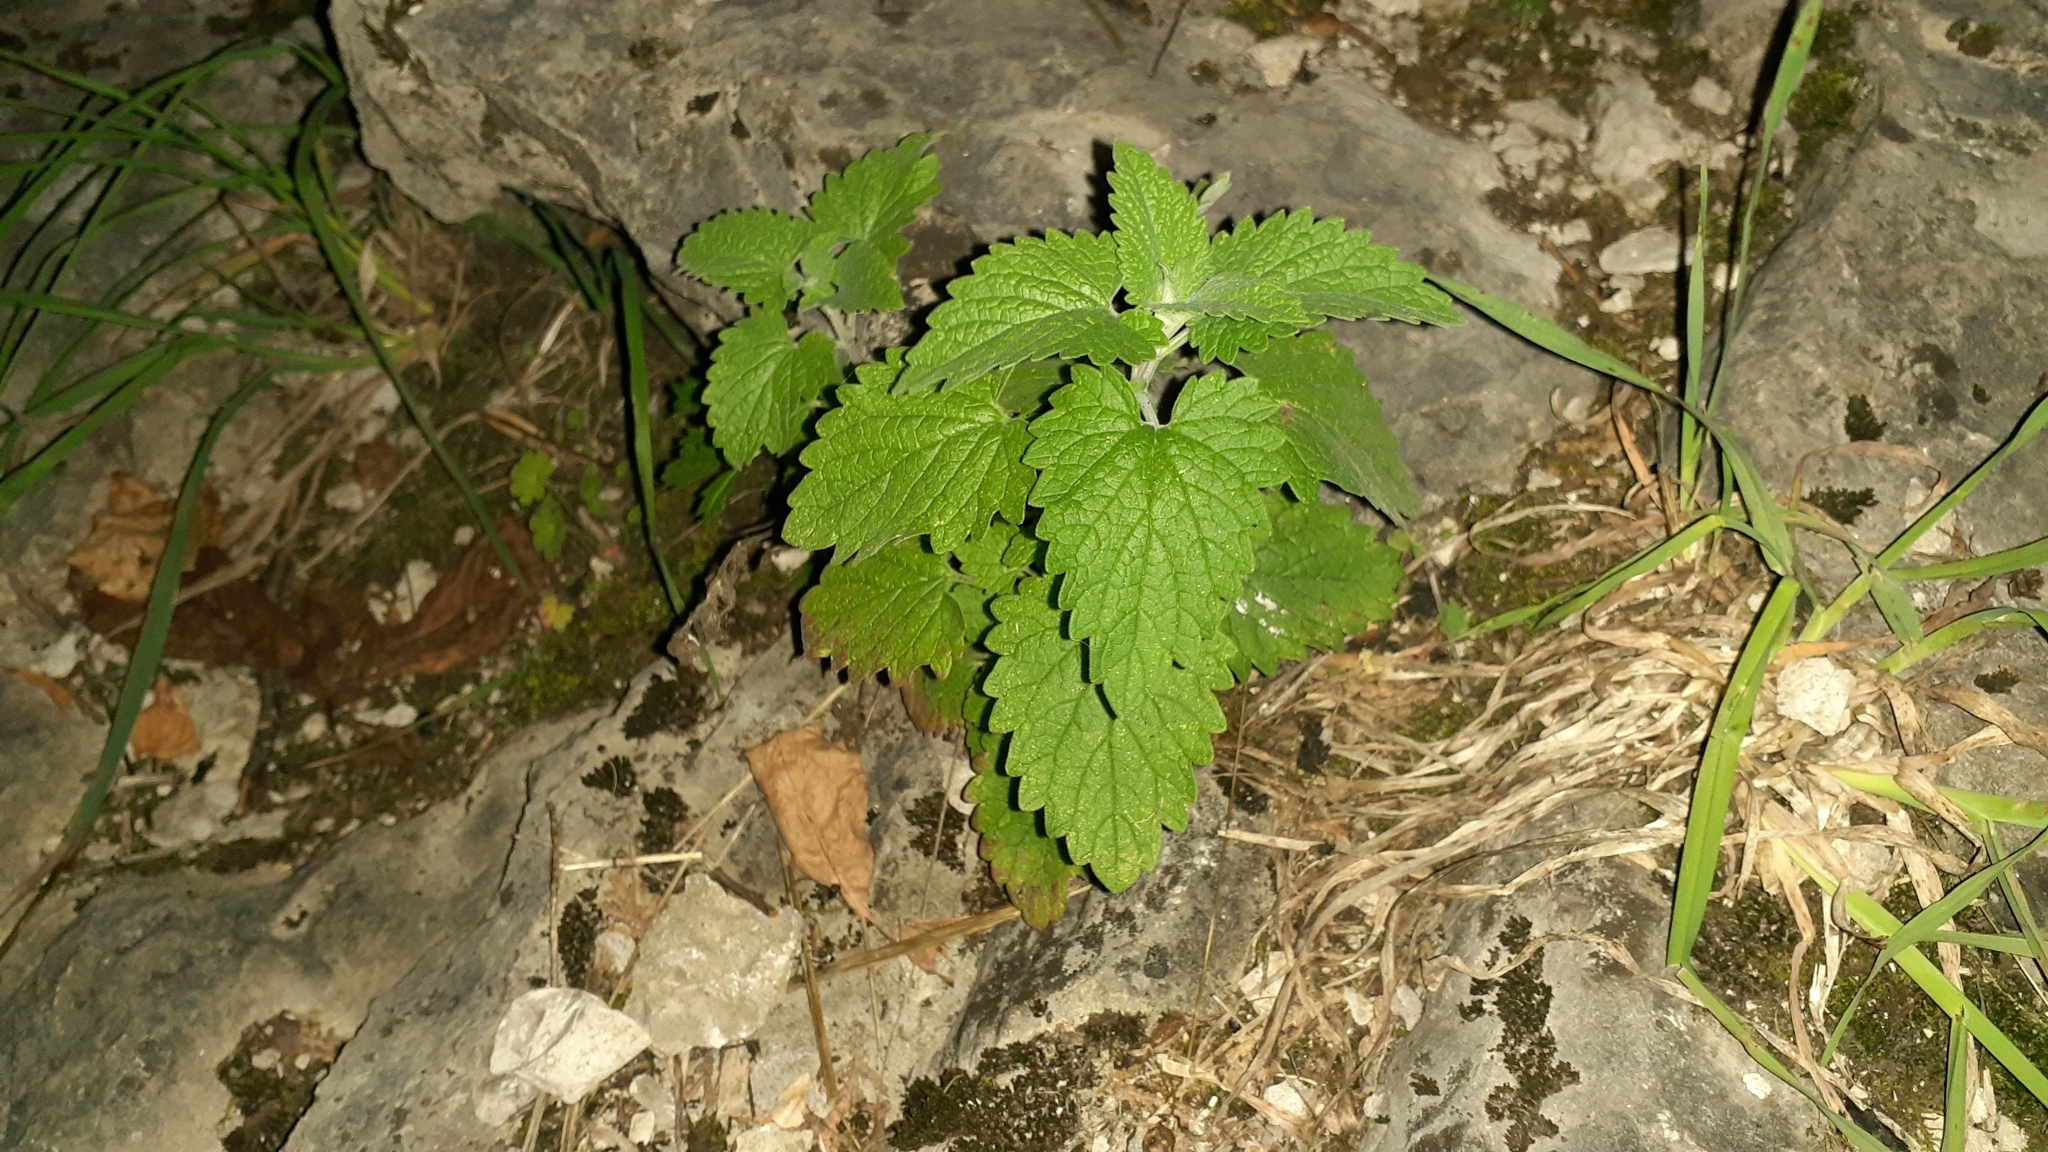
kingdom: Plantae
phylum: Tracheophyta
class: Magnoliopsida
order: Lamiales
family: Lamiaceae
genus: Nepeta
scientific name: Nepeta cataria
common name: Catnip
